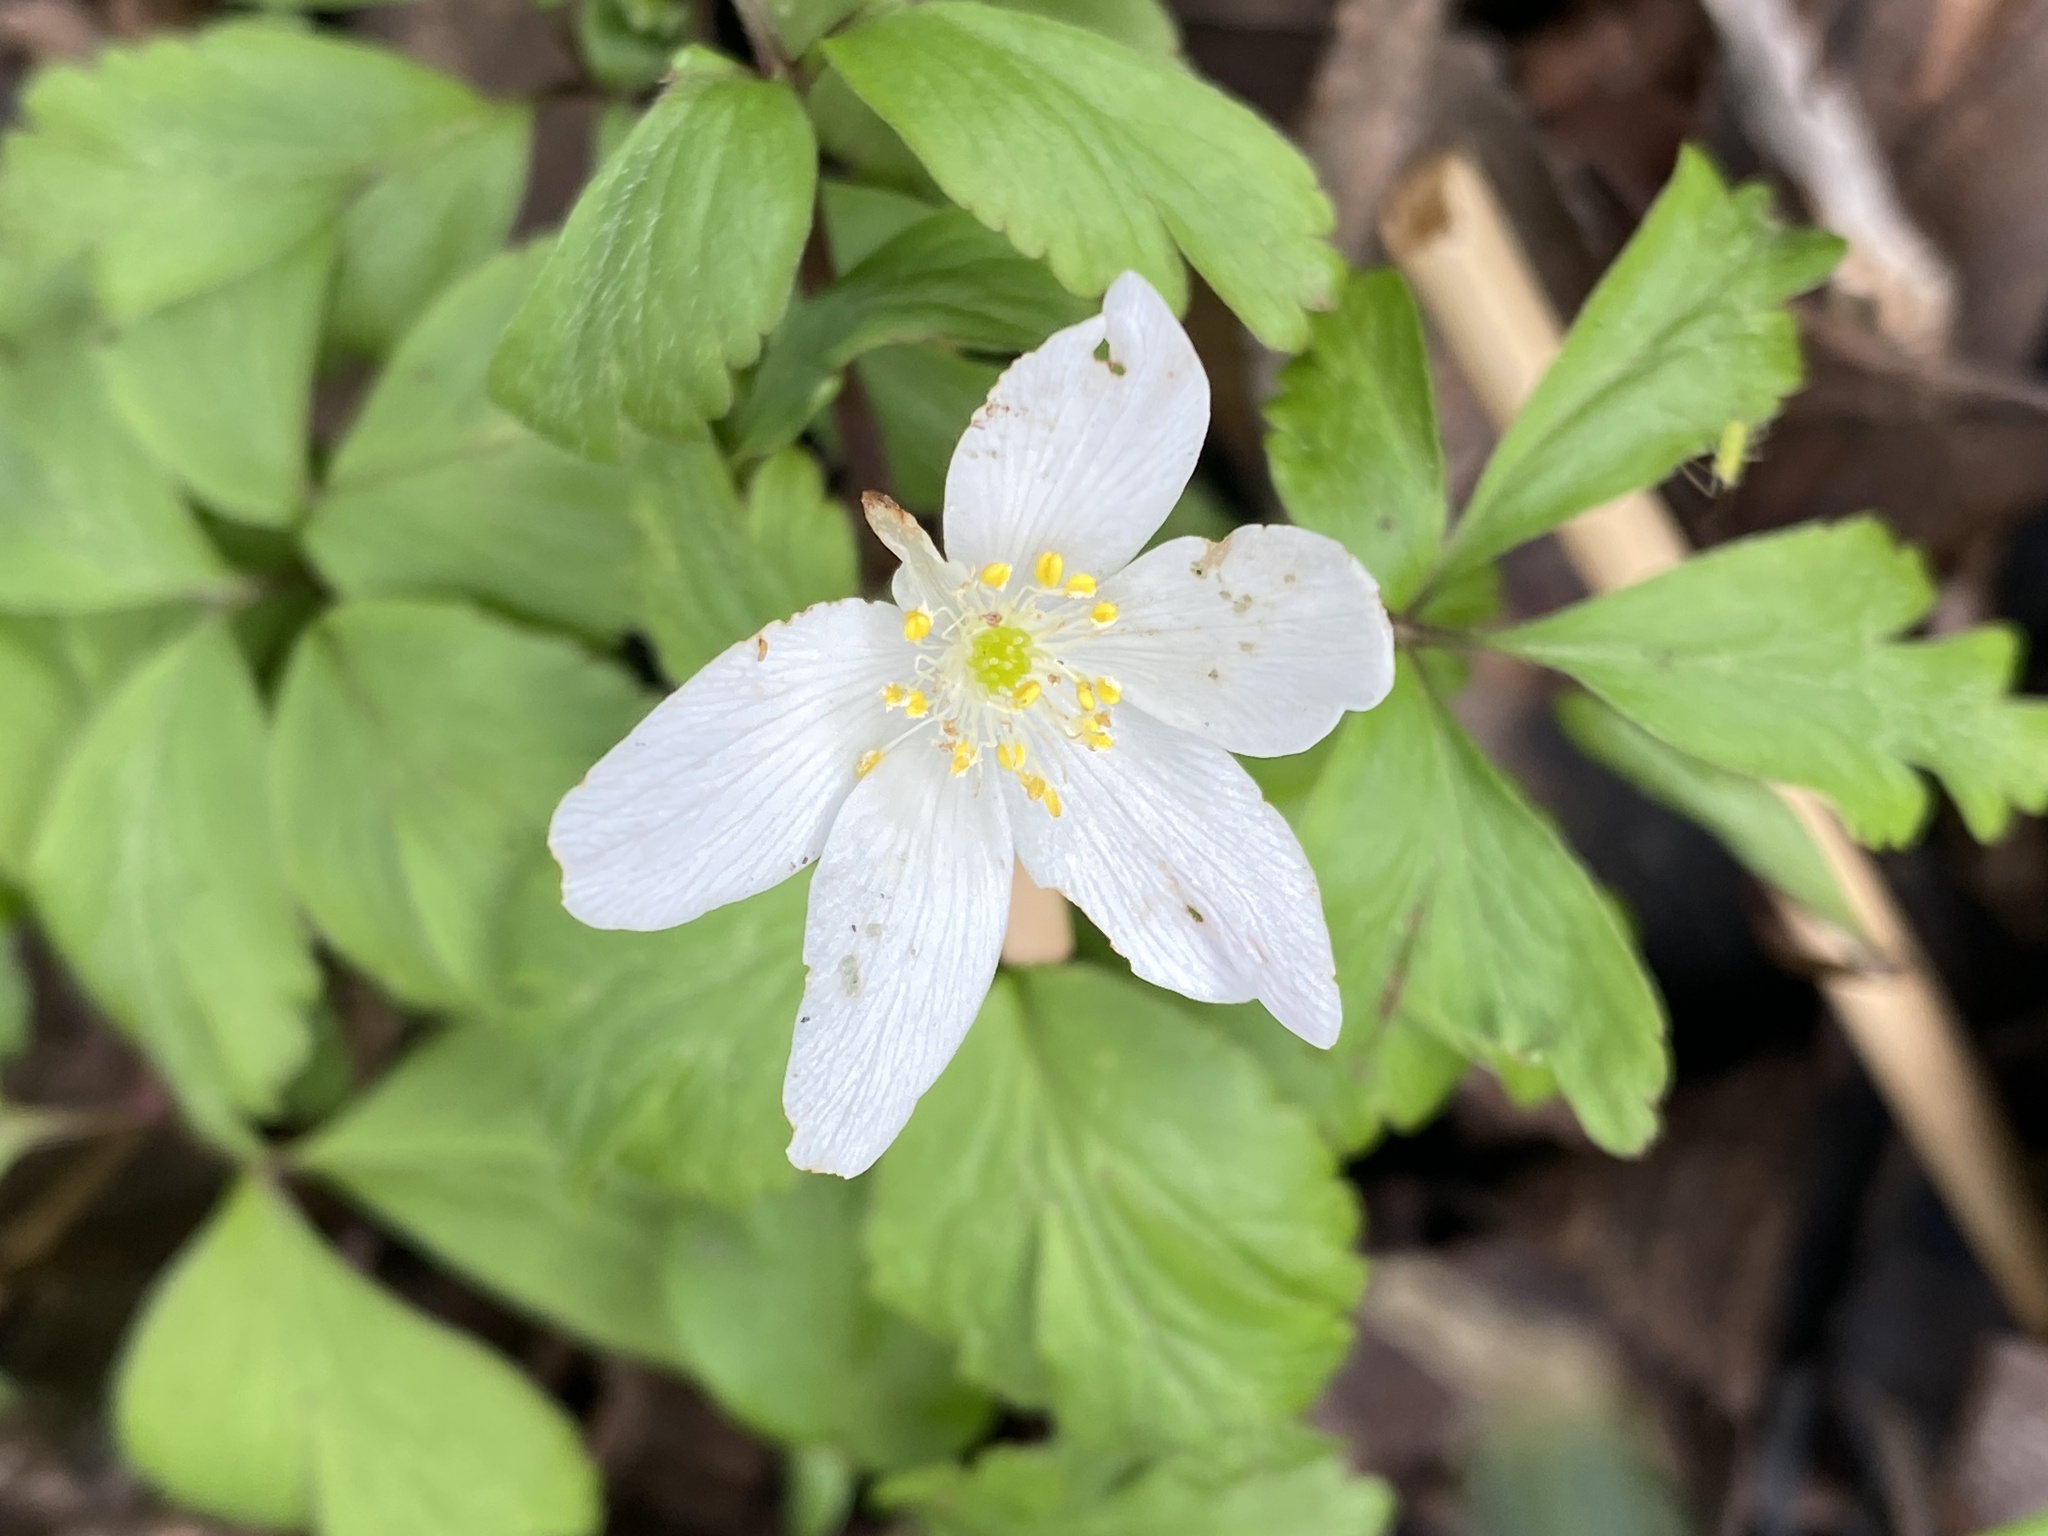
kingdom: Plantae
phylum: Tracheophyta
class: Magnoliopsida
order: Ranunculales
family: Ranunculaceae
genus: Anemone
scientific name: Anemone nemorosa
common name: Wood anemone
